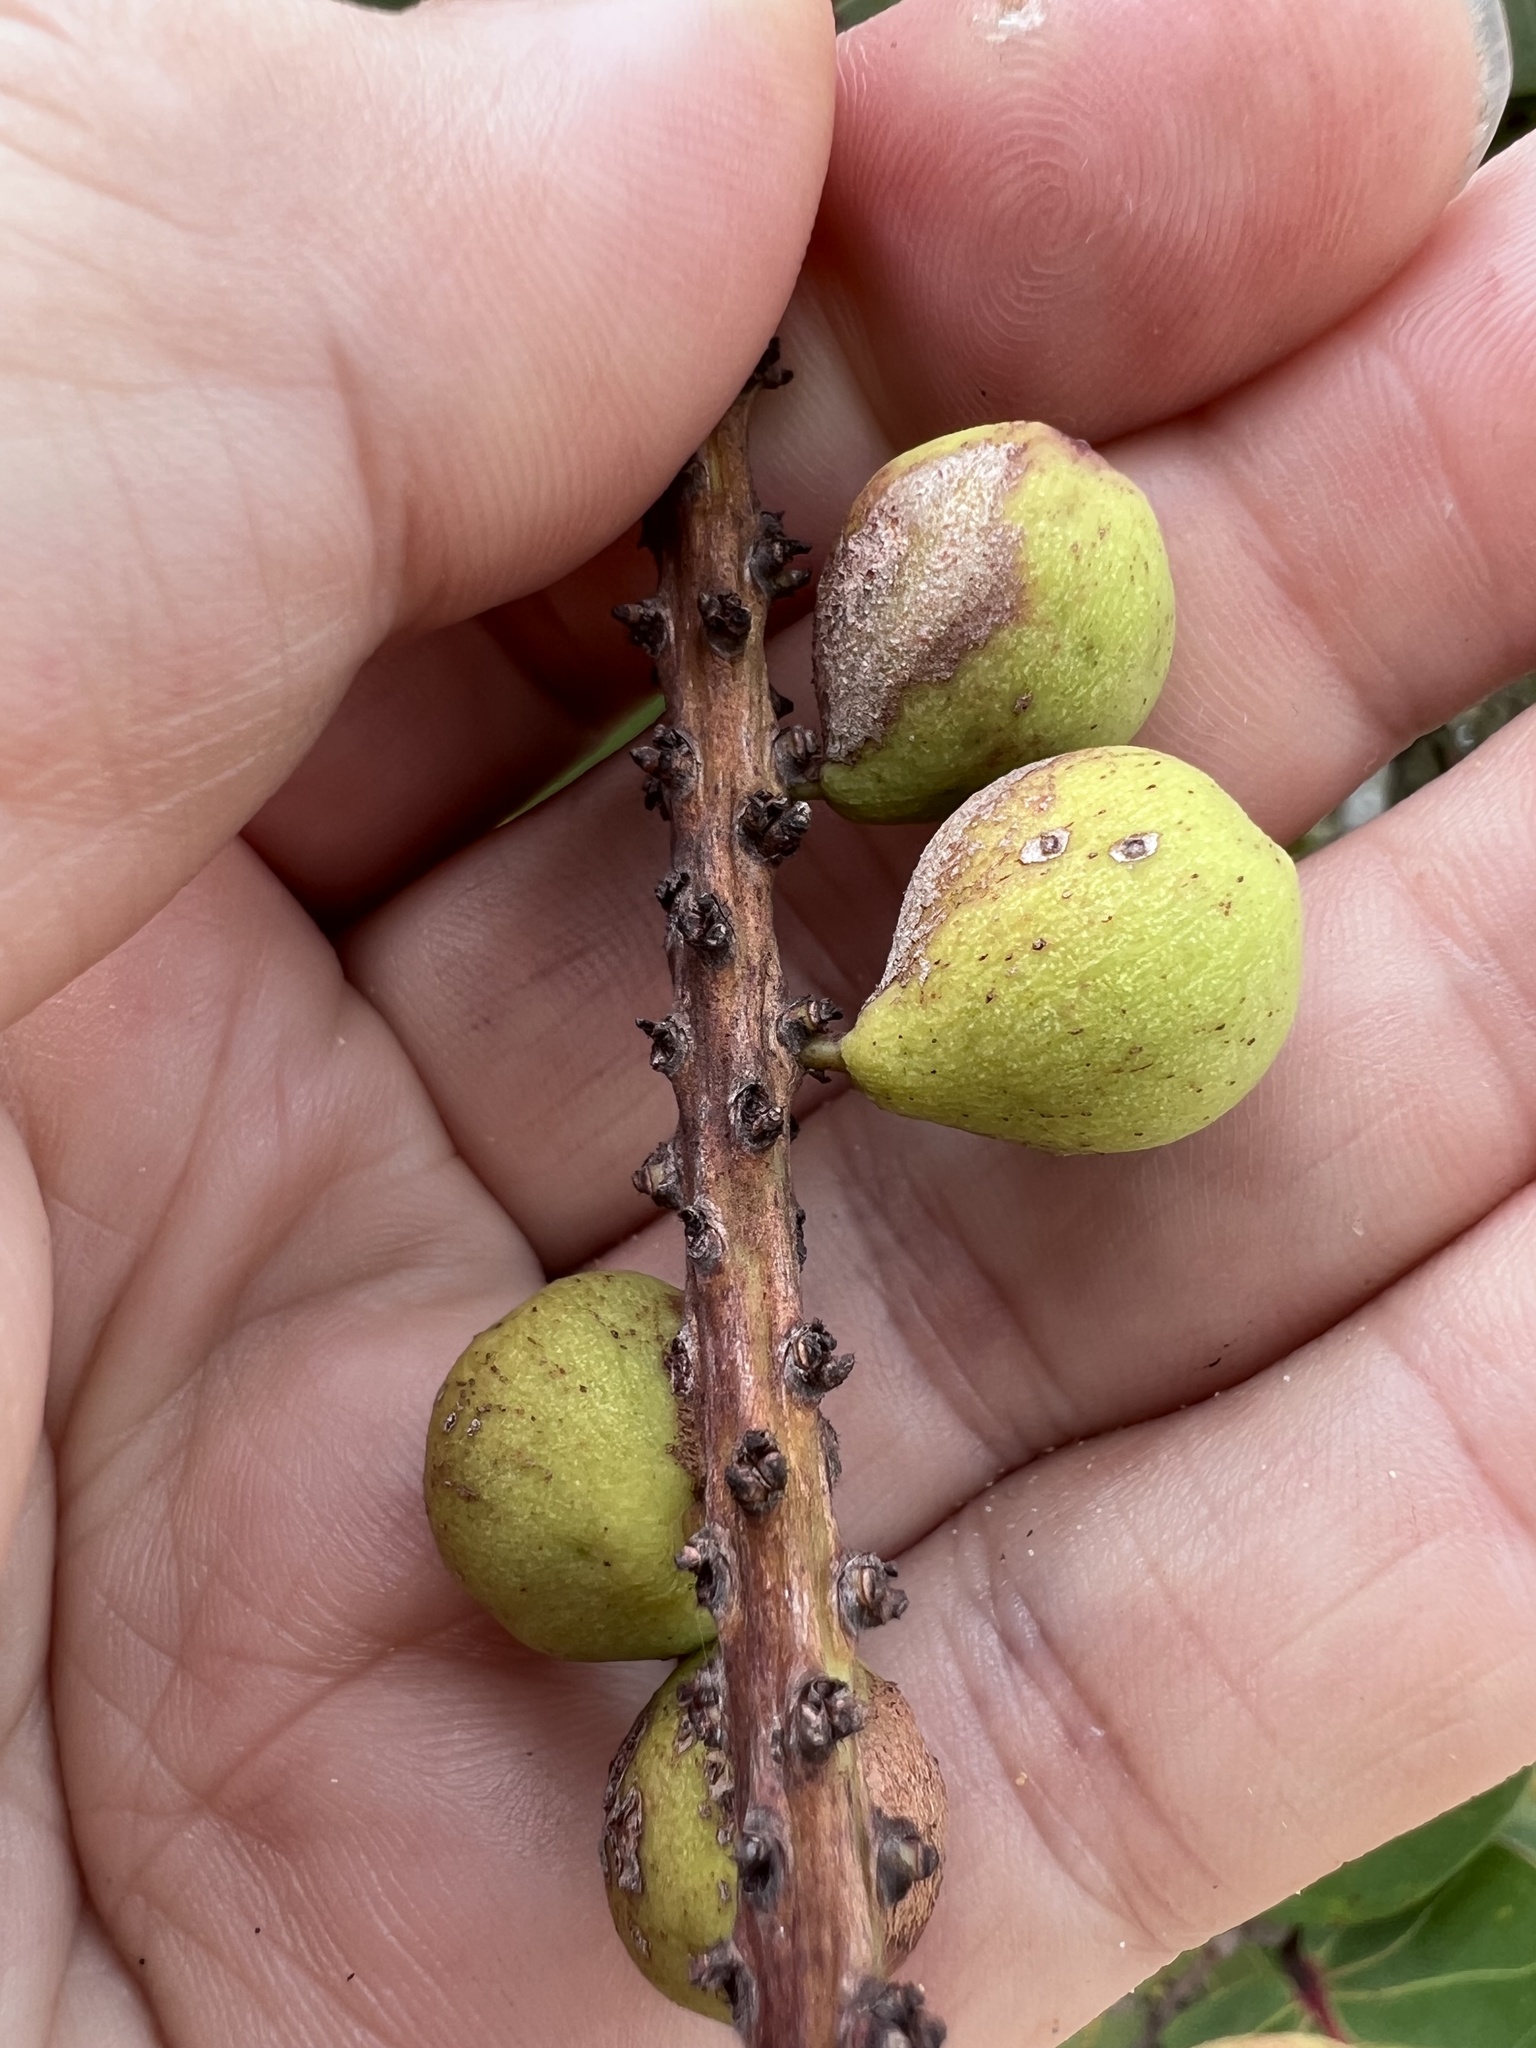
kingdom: Plantae
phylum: Tracheophyta
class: Magnoliopsida
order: Caryophyllales
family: Polygonaceae
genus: Coccoloba
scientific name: Coccoloba uvifera
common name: Seagrape
